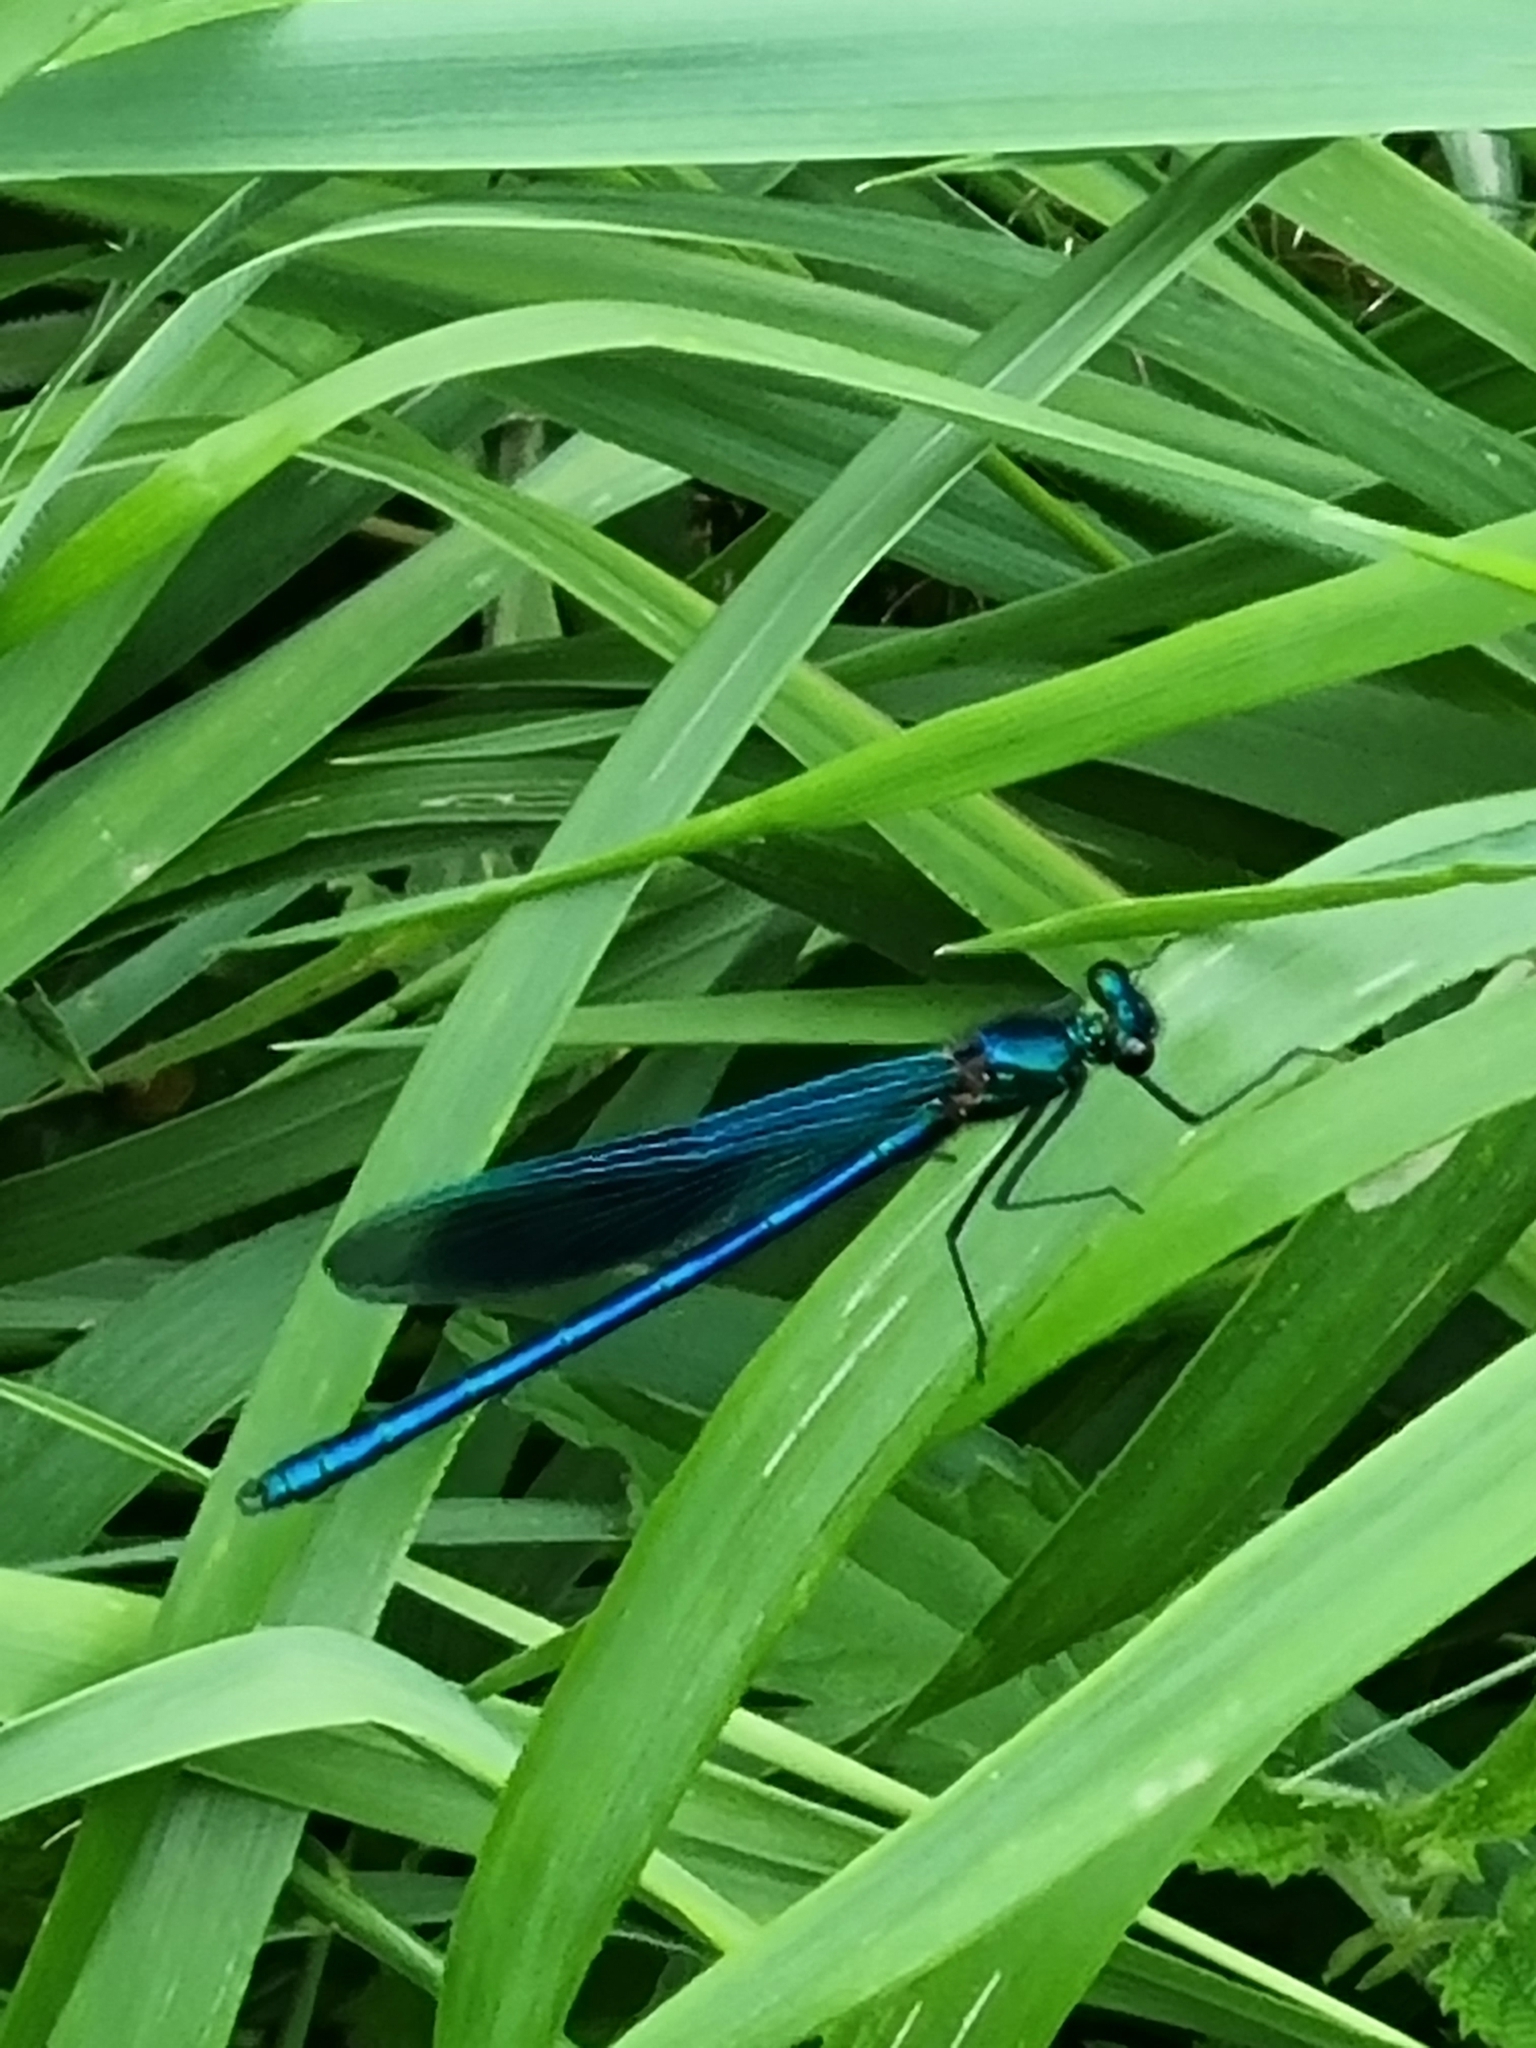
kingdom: Animalia
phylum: Arthropoda
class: Insecta
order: Odonata
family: Calopterygidae
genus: Calopteryx
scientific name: Calopteryx splendens
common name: Banded demoiselle
